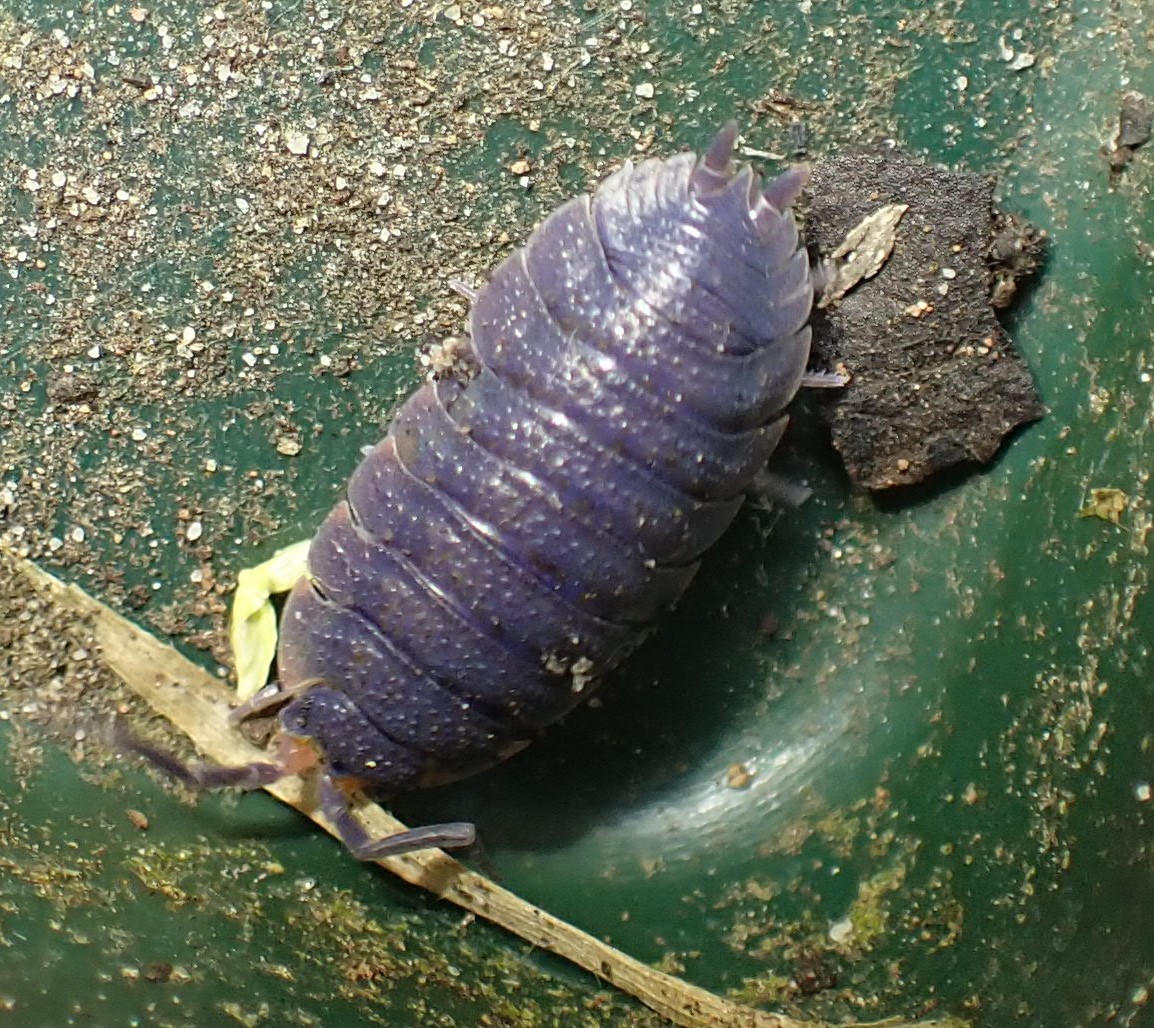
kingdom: Viruses
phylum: Nucleocytoviricota
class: Megaviricetes
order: Pimascovirales
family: Iridoviridae
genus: Iridovirus
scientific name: Iridovirus Invertebrate iridescent virus 31
